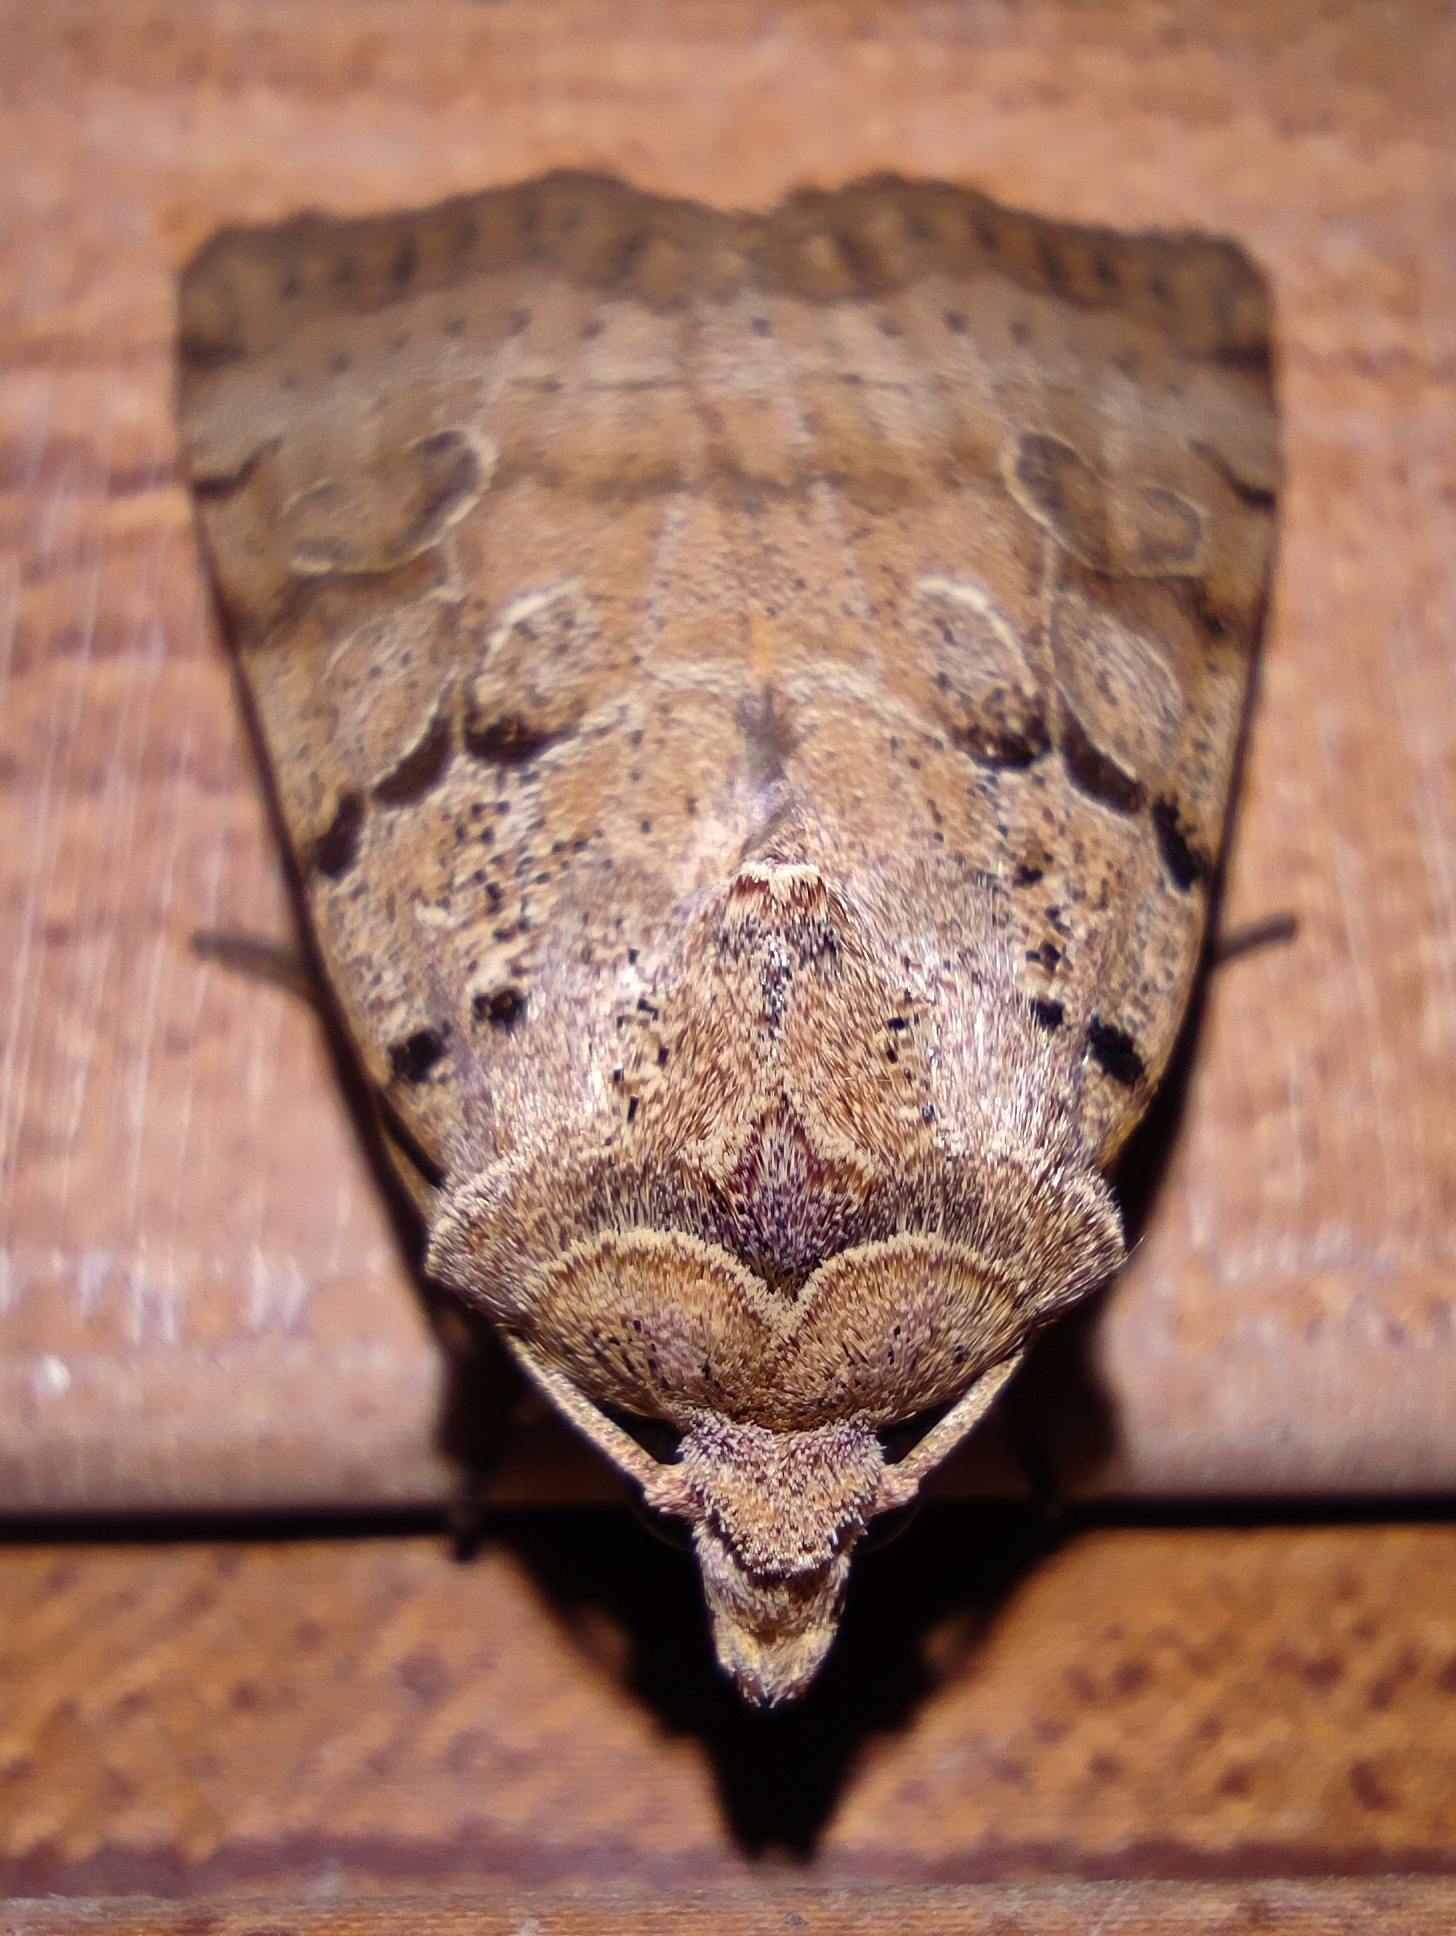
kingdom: Animalia
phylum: Arthropoda
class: Insecta
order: Lepidoptera
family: Noctuidae
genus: Eugnorisma
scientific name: Eugnorisma depuncta
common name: Plain clay
